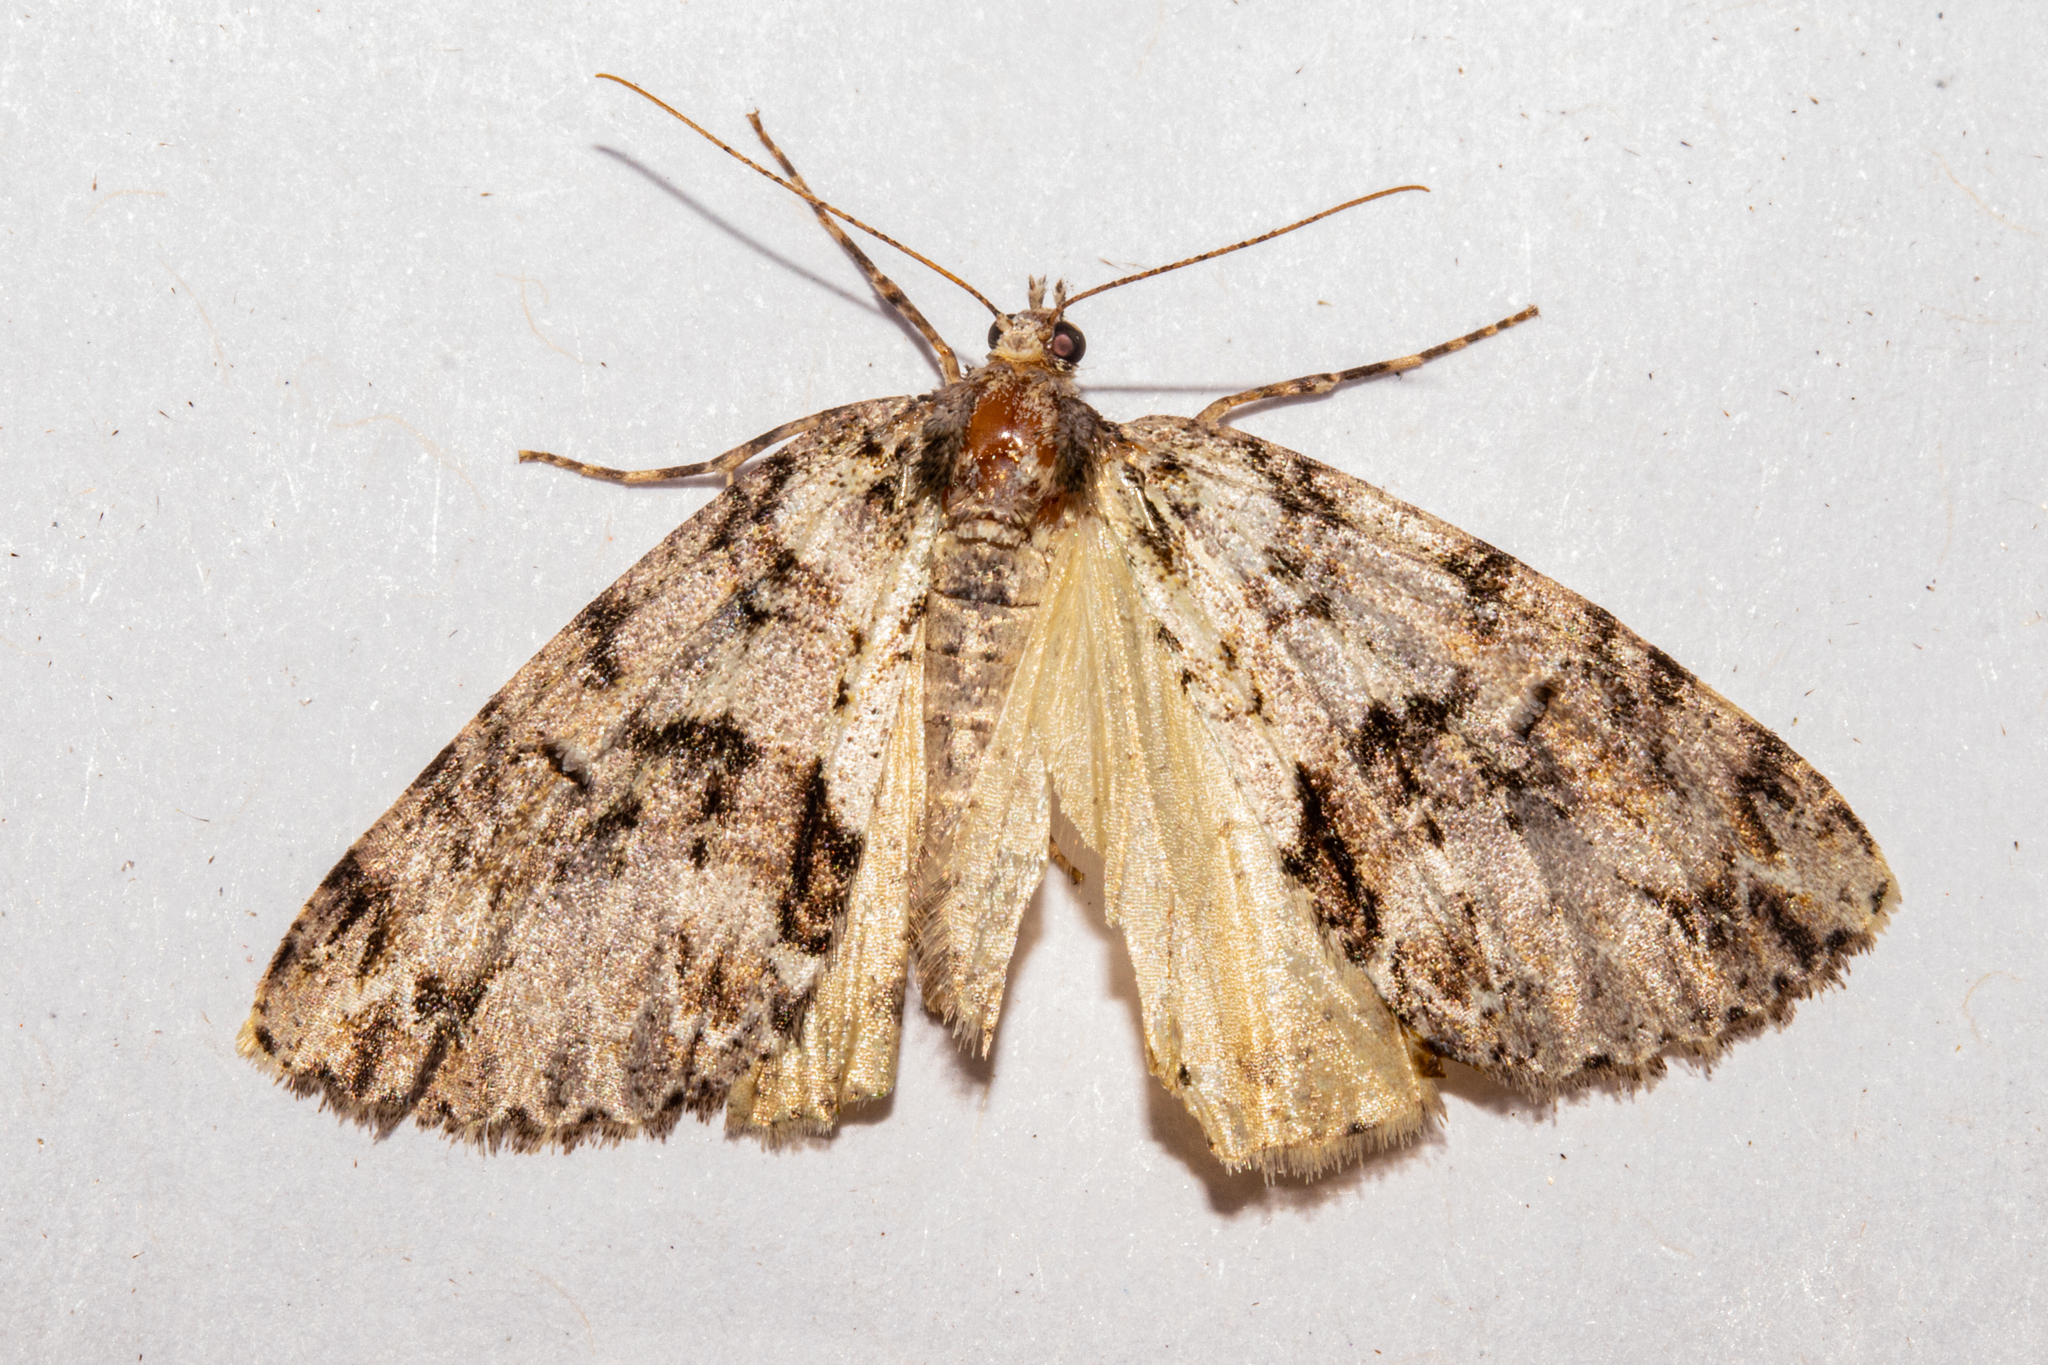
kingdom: Animalia
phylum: Arthropoda
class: Insecta
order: Lepidoptera
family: Geometridae
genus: Pseudocoremia
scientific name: Pseudocoremia suavis
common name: Common forest looper
